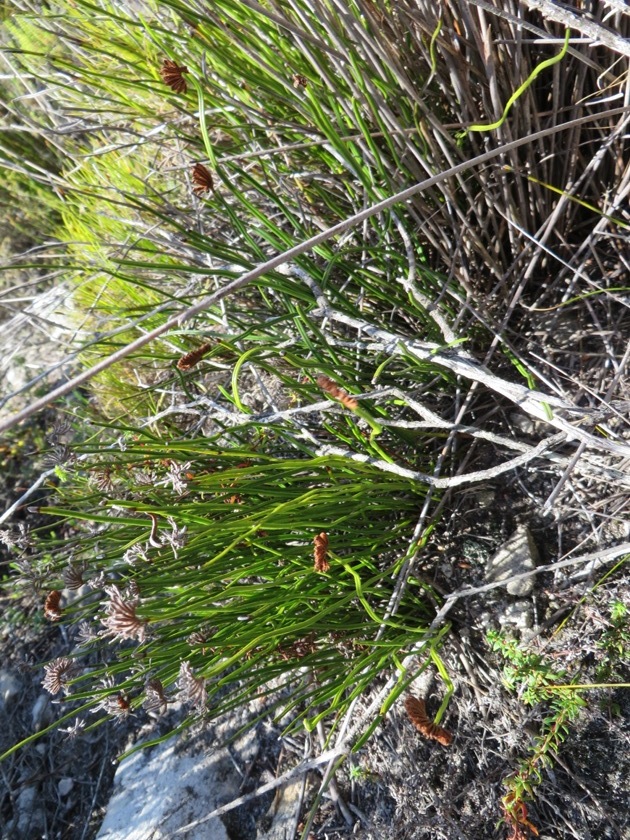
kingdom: Plantae
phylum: Tracheophyta
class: Polypodiopsida
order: Schizaeales
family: Schizaeaceae
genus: Schizaea
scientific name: Schizaea pectinata
